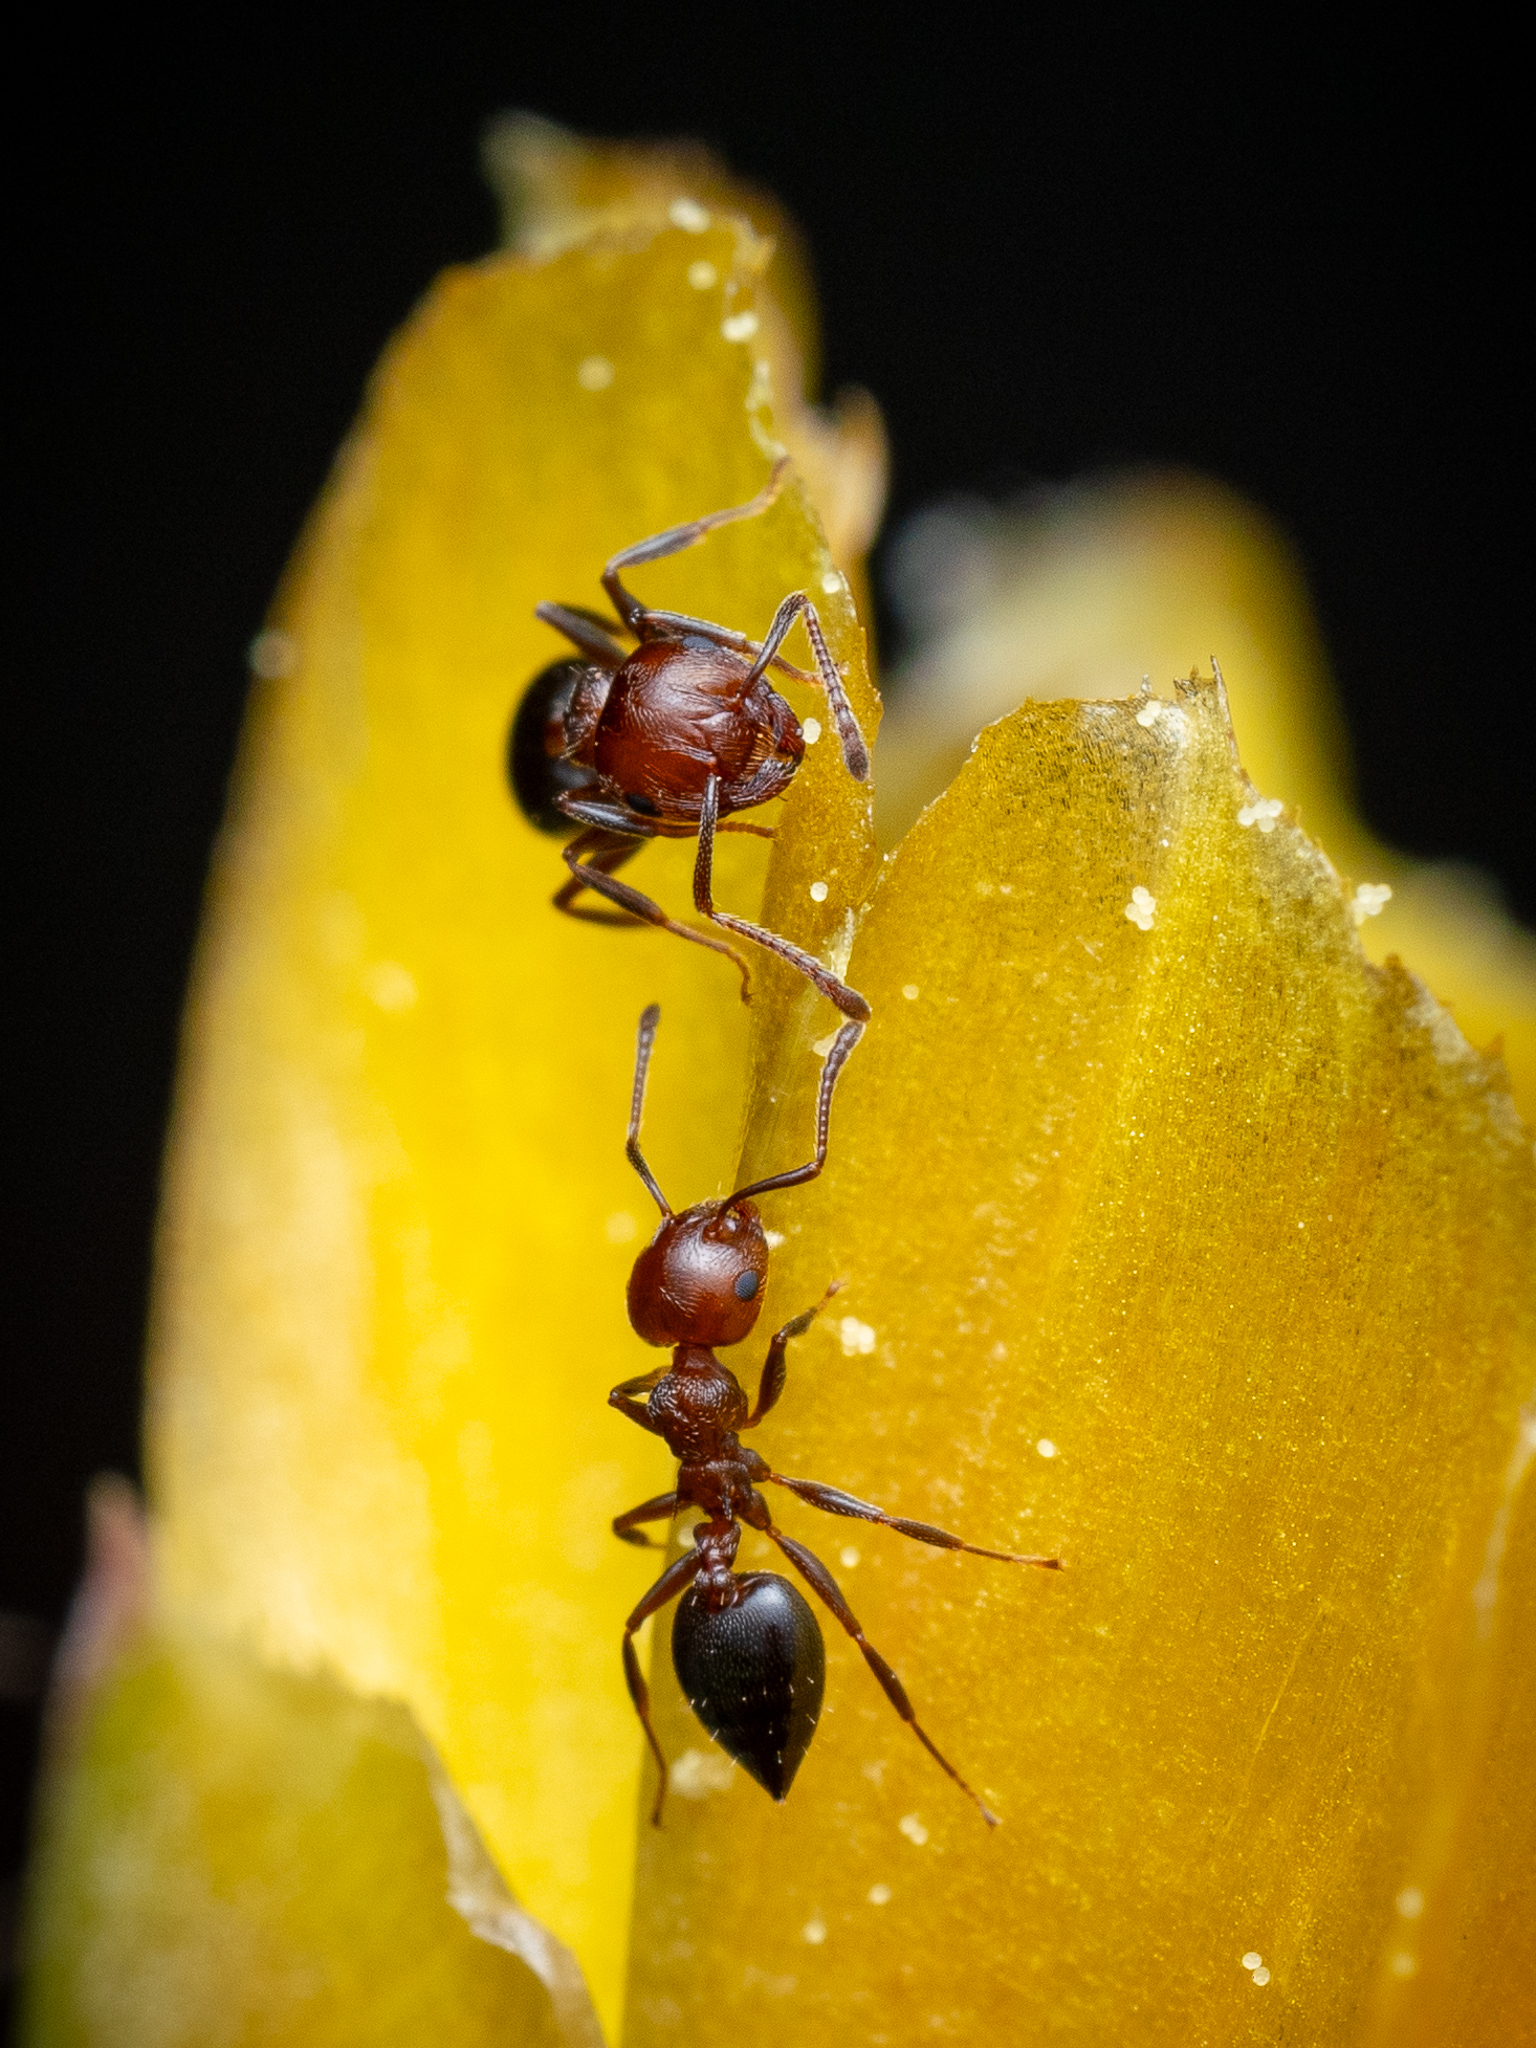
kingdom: Animalia
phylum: Arthropoda
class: Insecta
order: Hymenoptera
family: Formicidae
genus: Crematogaster
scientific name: Crematogaster schmidti
